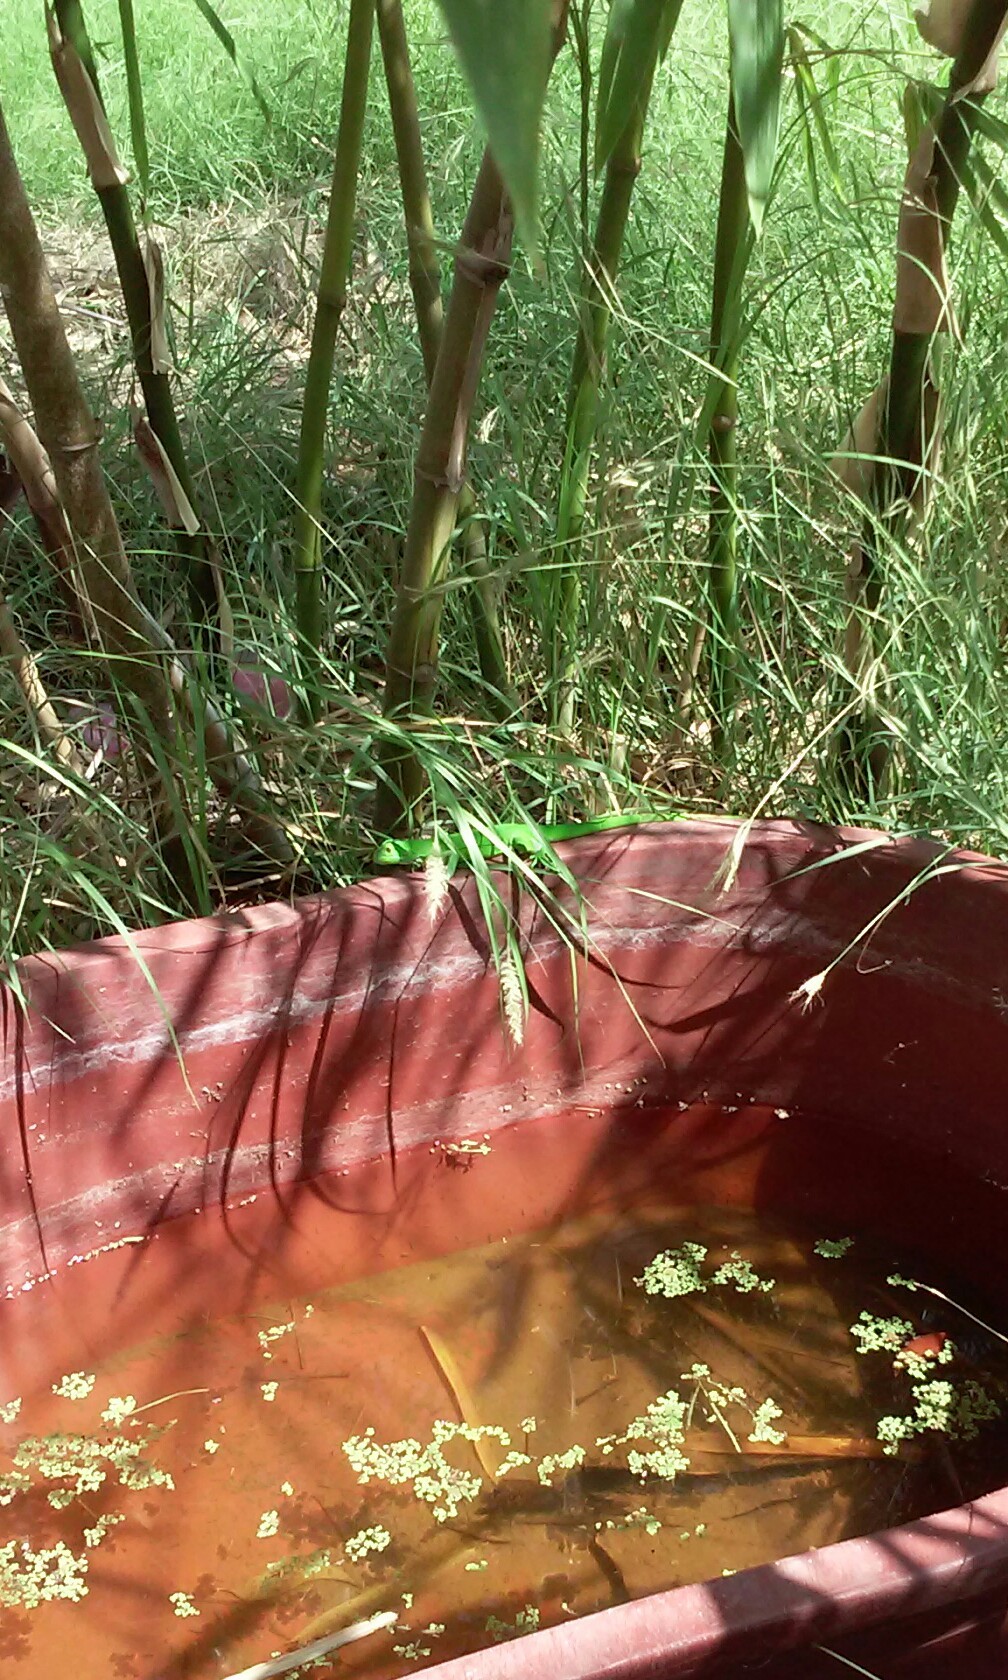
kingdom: Animalia
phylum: Chordata
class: Squamata
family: Iguanidae
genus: Iguana
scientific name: Iguana iguana
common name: Green iguana
